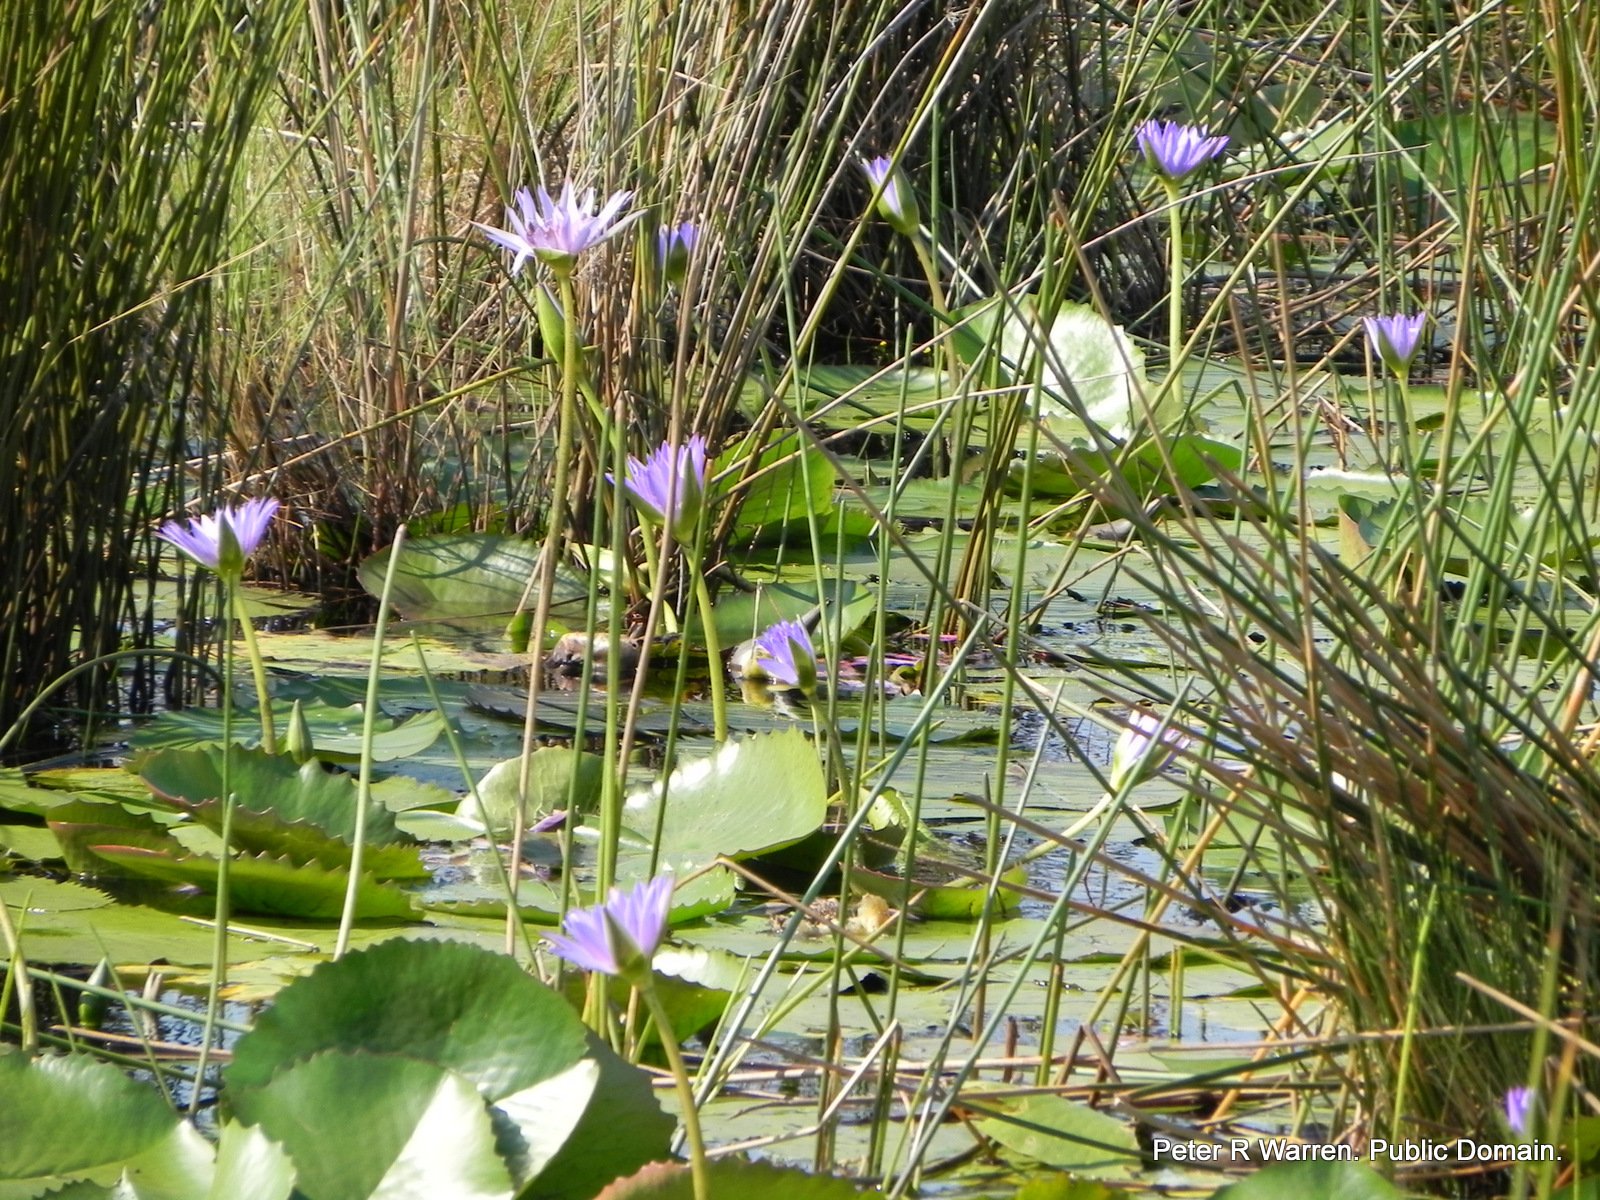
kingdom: Plantae
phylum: Tracheophyta
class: Magnoliopsida
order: Nymphaeales
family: Nymphaeaceae
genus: Nymphaea
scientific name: Nymphaea nouchali
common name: Blue lotus
